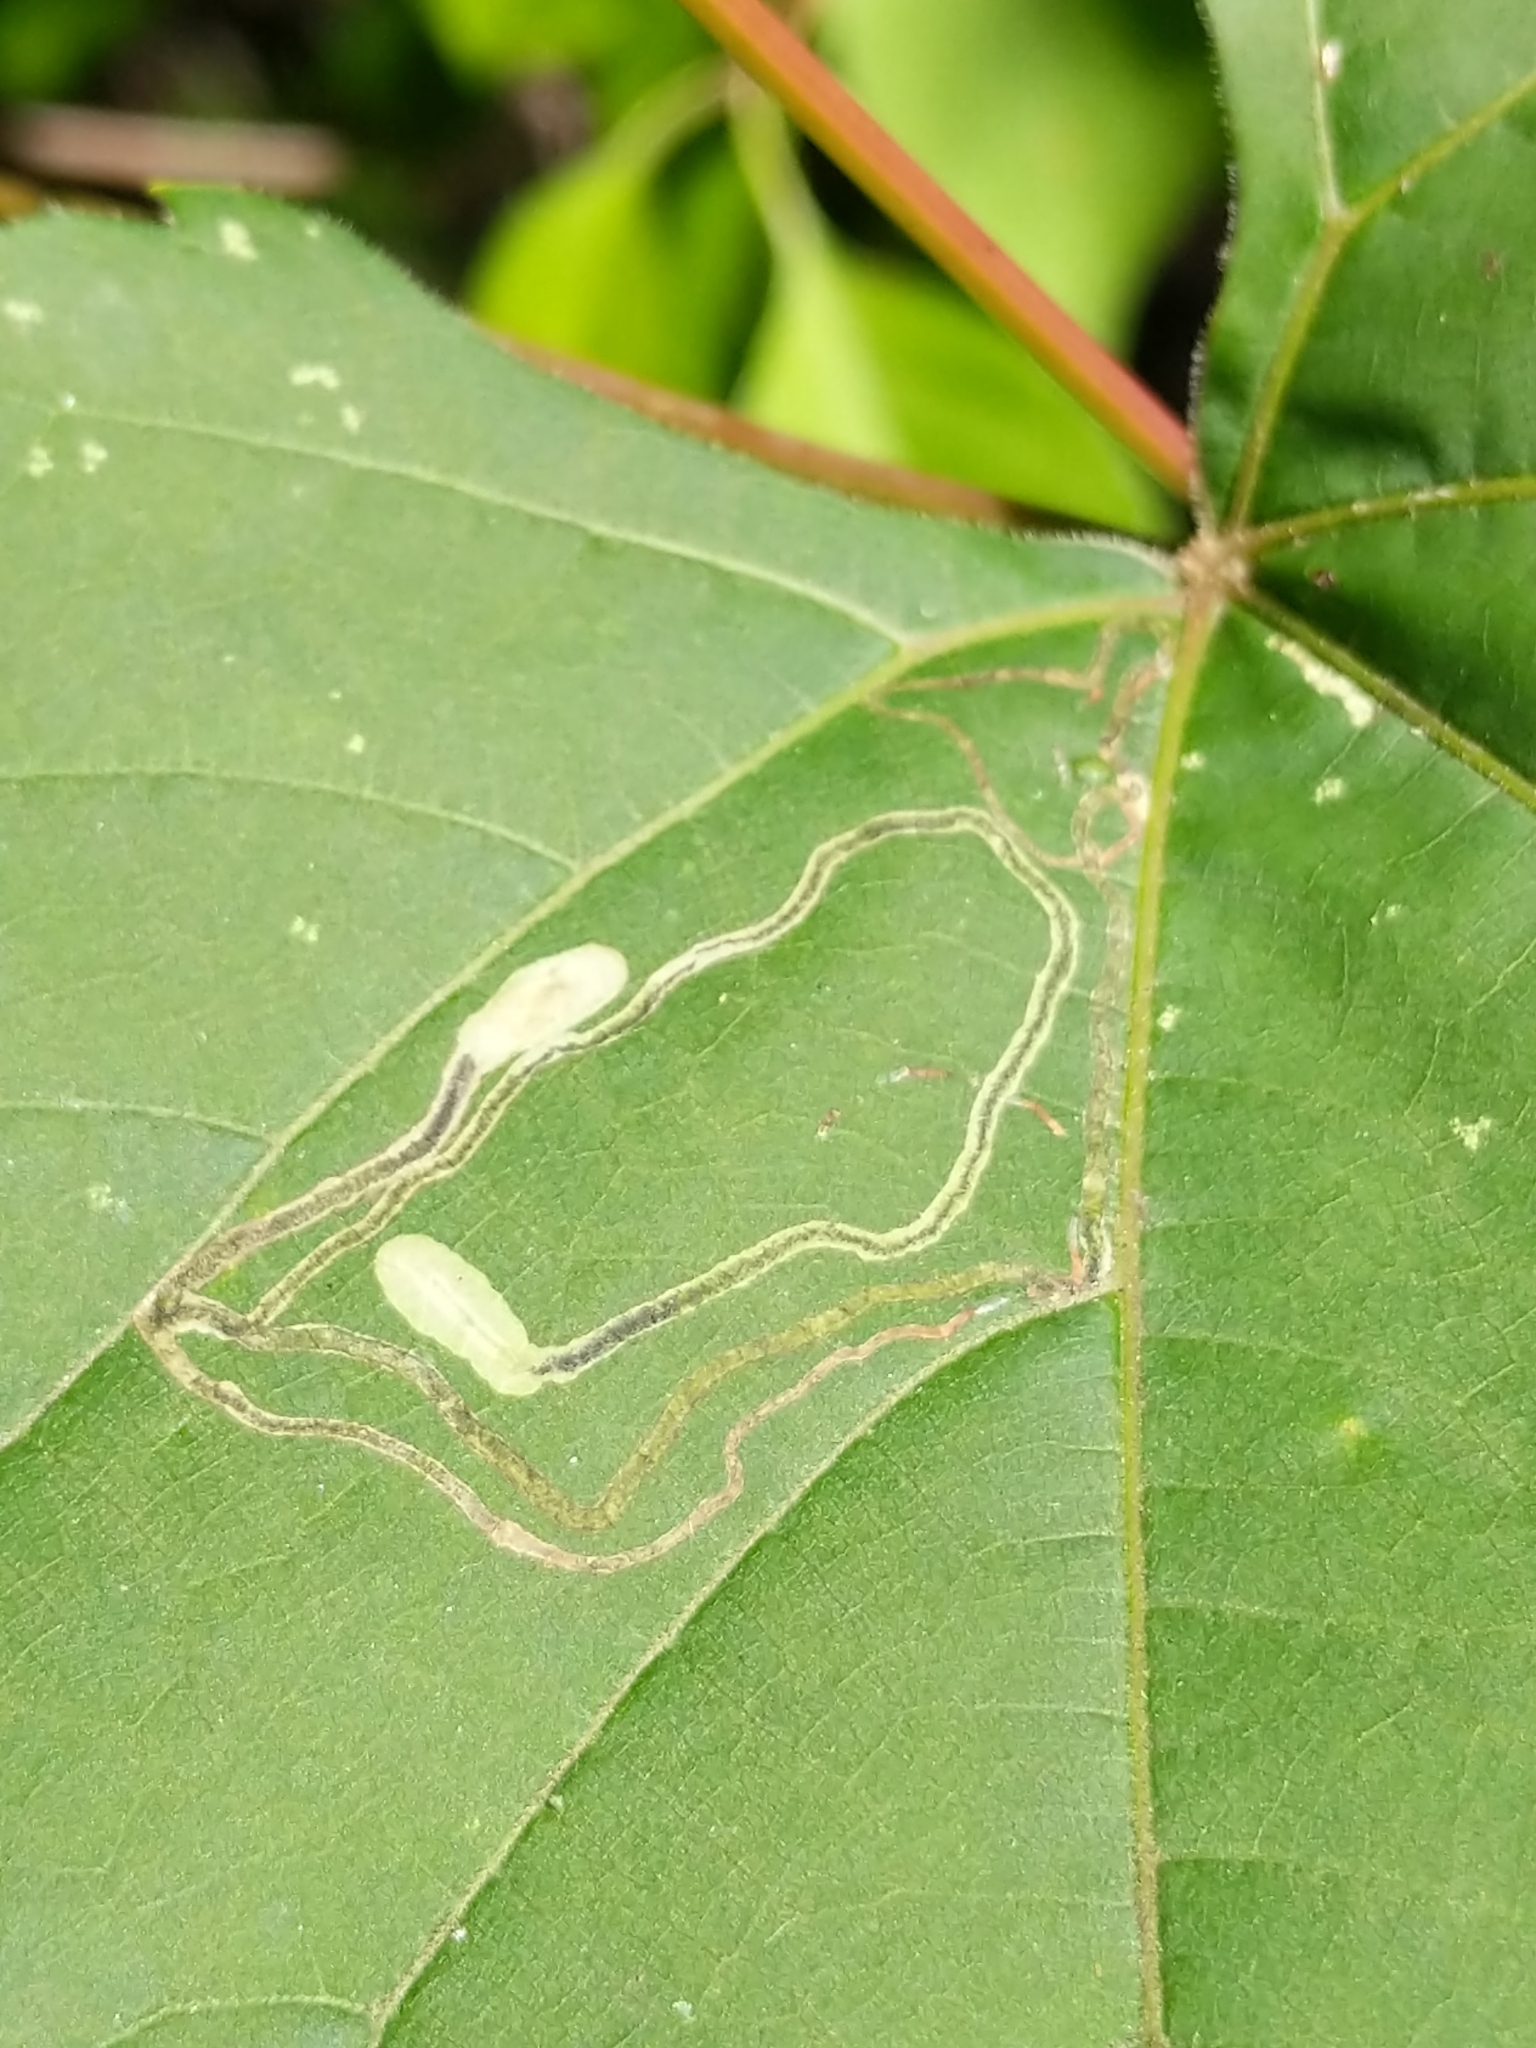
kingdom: Animalia
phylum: Arthropoda
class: Insecta
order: Lepidoptera
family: Gracillariidae
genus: Phyllocnistis
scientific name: Phyllocnistis vitifoliella
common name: Grape leaf-miner moth
